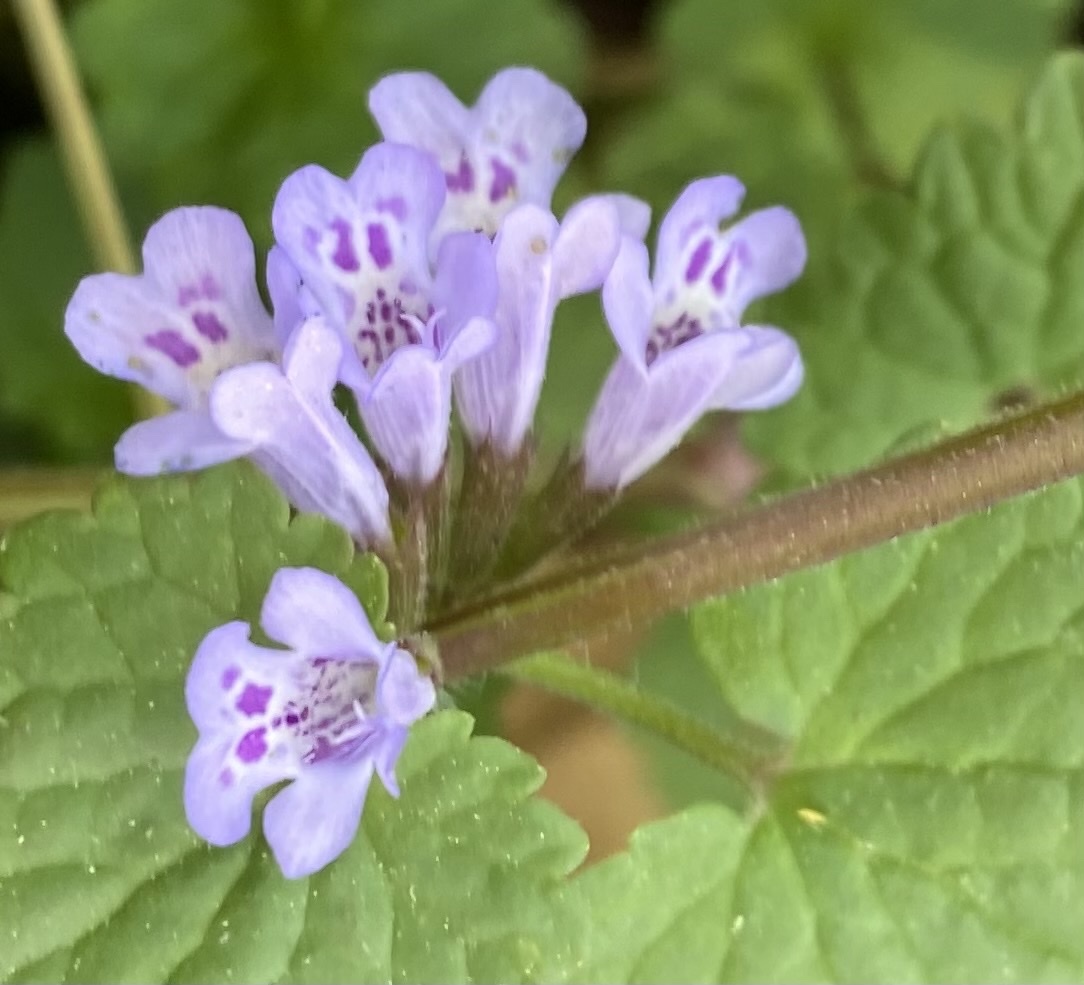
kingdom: Plantae
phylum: Tracheophyta
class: Magnoliopsida
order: Lamiales
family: Lamiaceae
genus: Glechoma
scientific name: Glechoma hederacea
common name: Ground ivy
